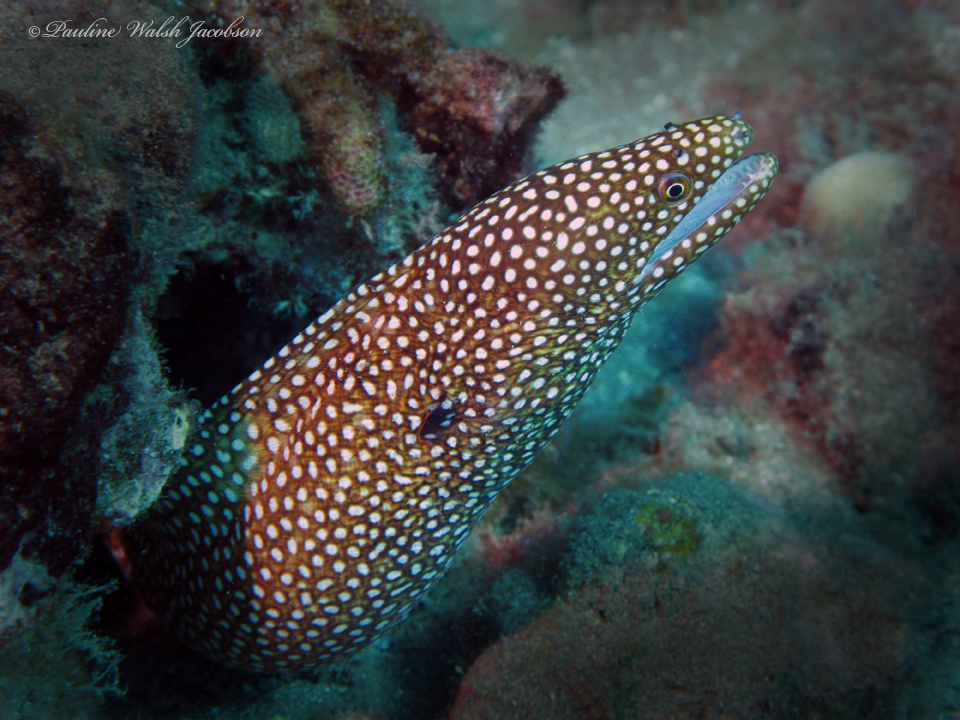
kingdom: Animalia
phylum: Chordata
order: Anguilliformes
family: Muraenidae
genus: Gymnothorax
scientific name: Gymnothorax meleagris
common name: Guineafowl moray
